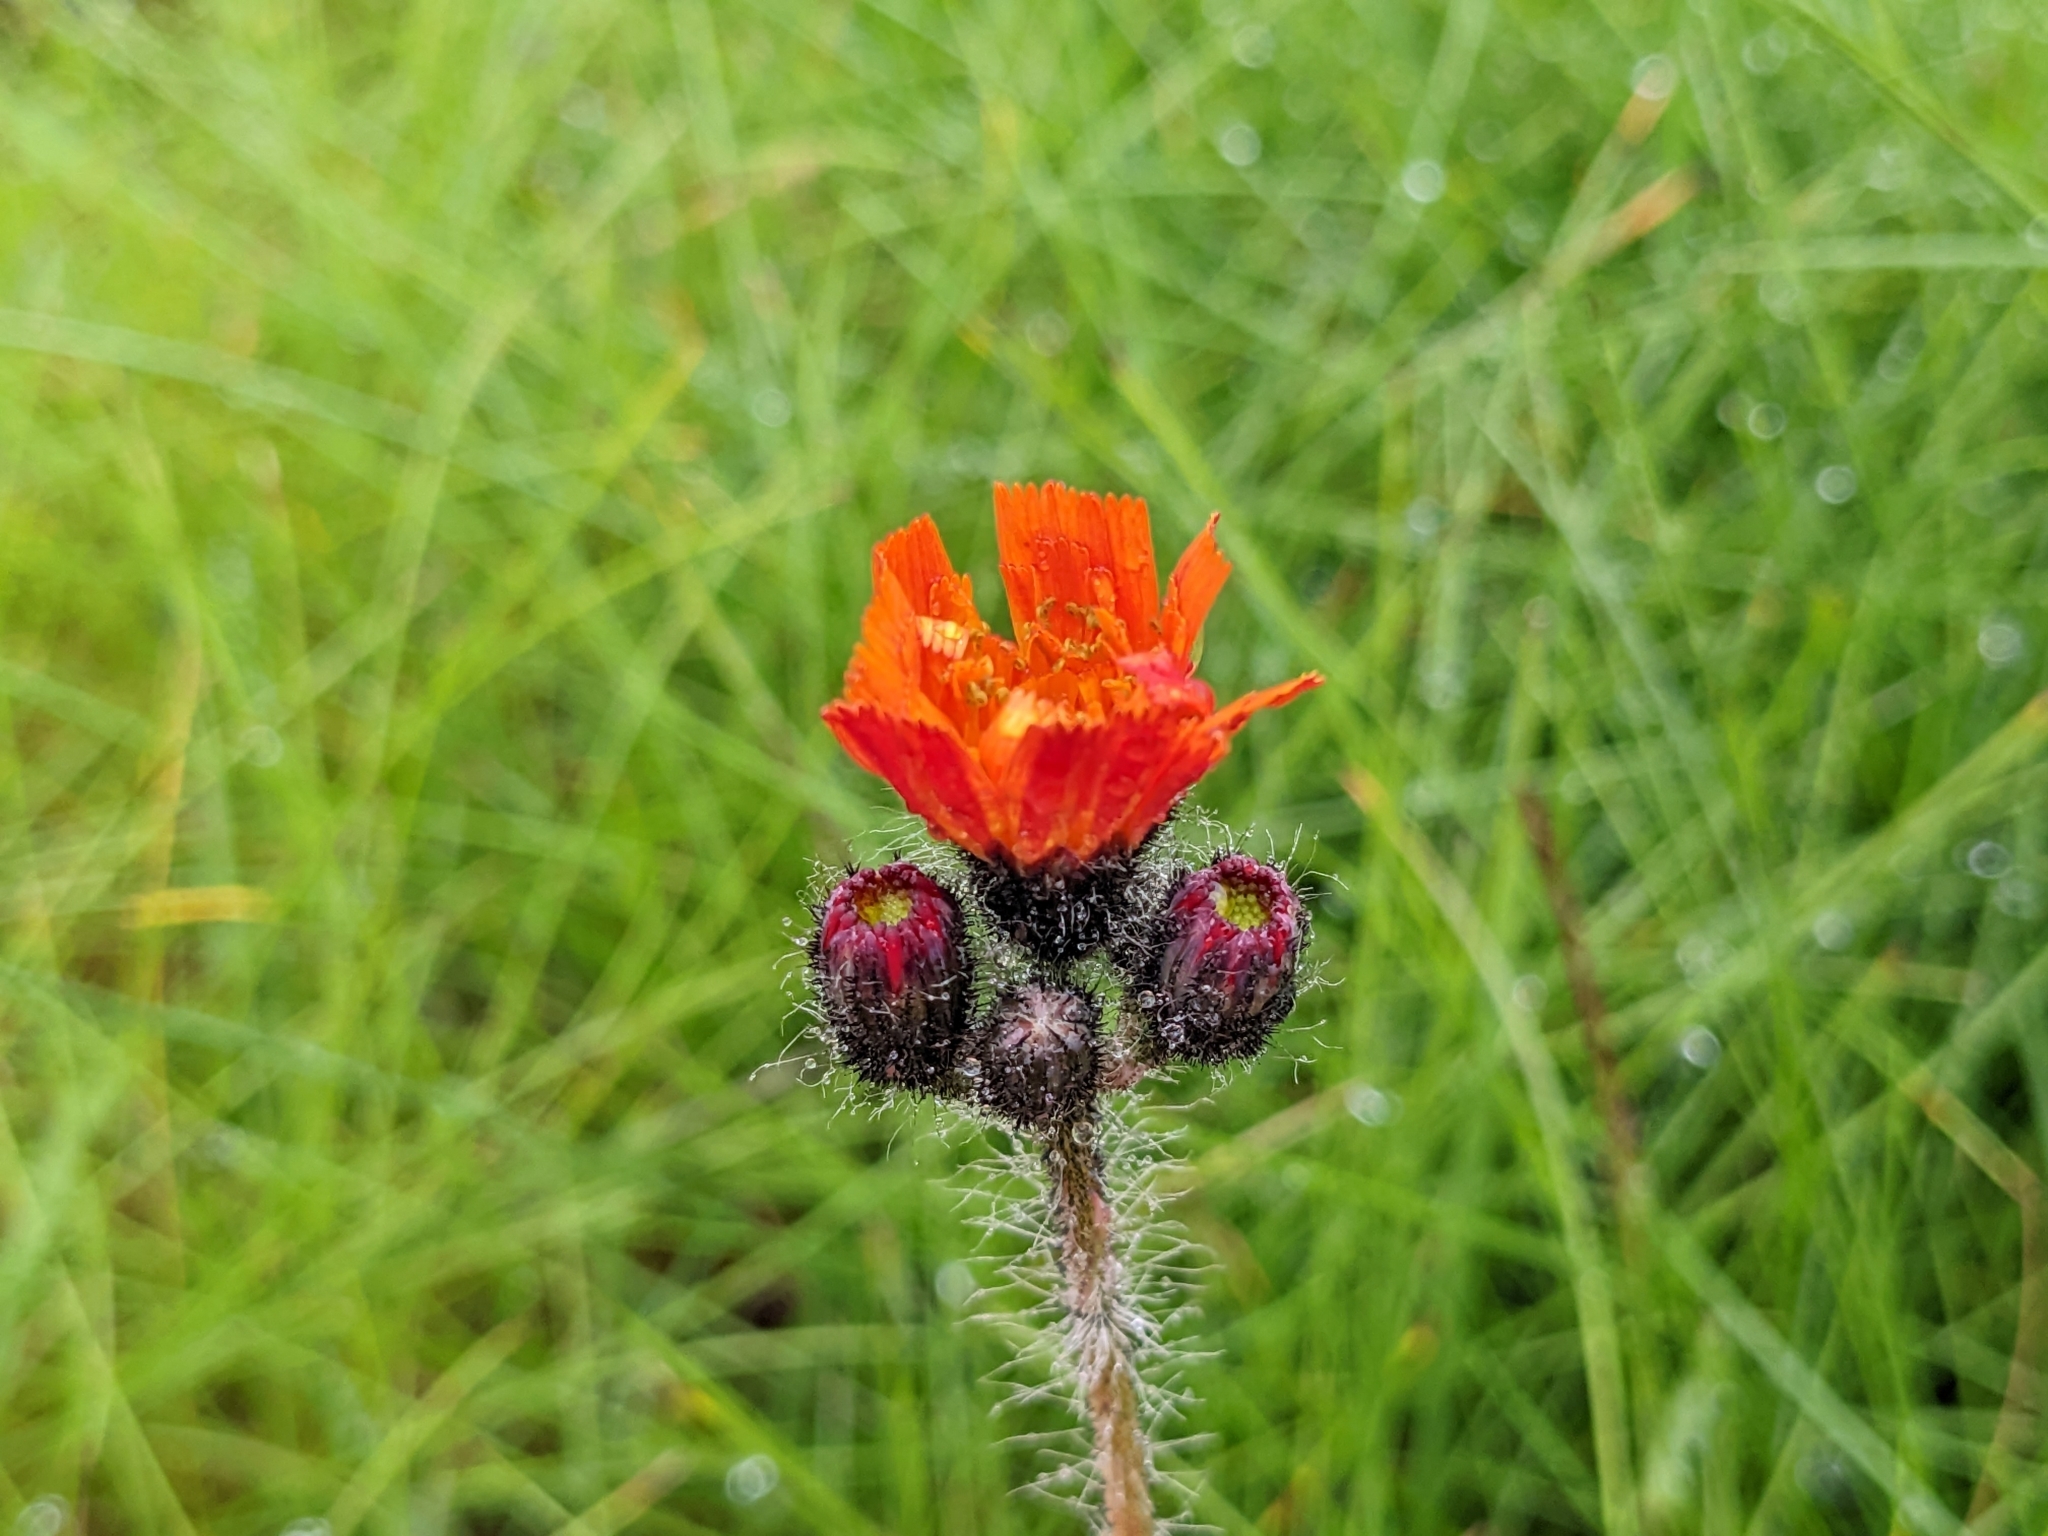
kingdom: Plantae
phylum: Tracheophyta
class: Magnoliopsida
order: Asterales
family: Asteraceae
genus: Pilosella
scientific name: Pilosella aurantiaca
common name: Fox-and-cubs
